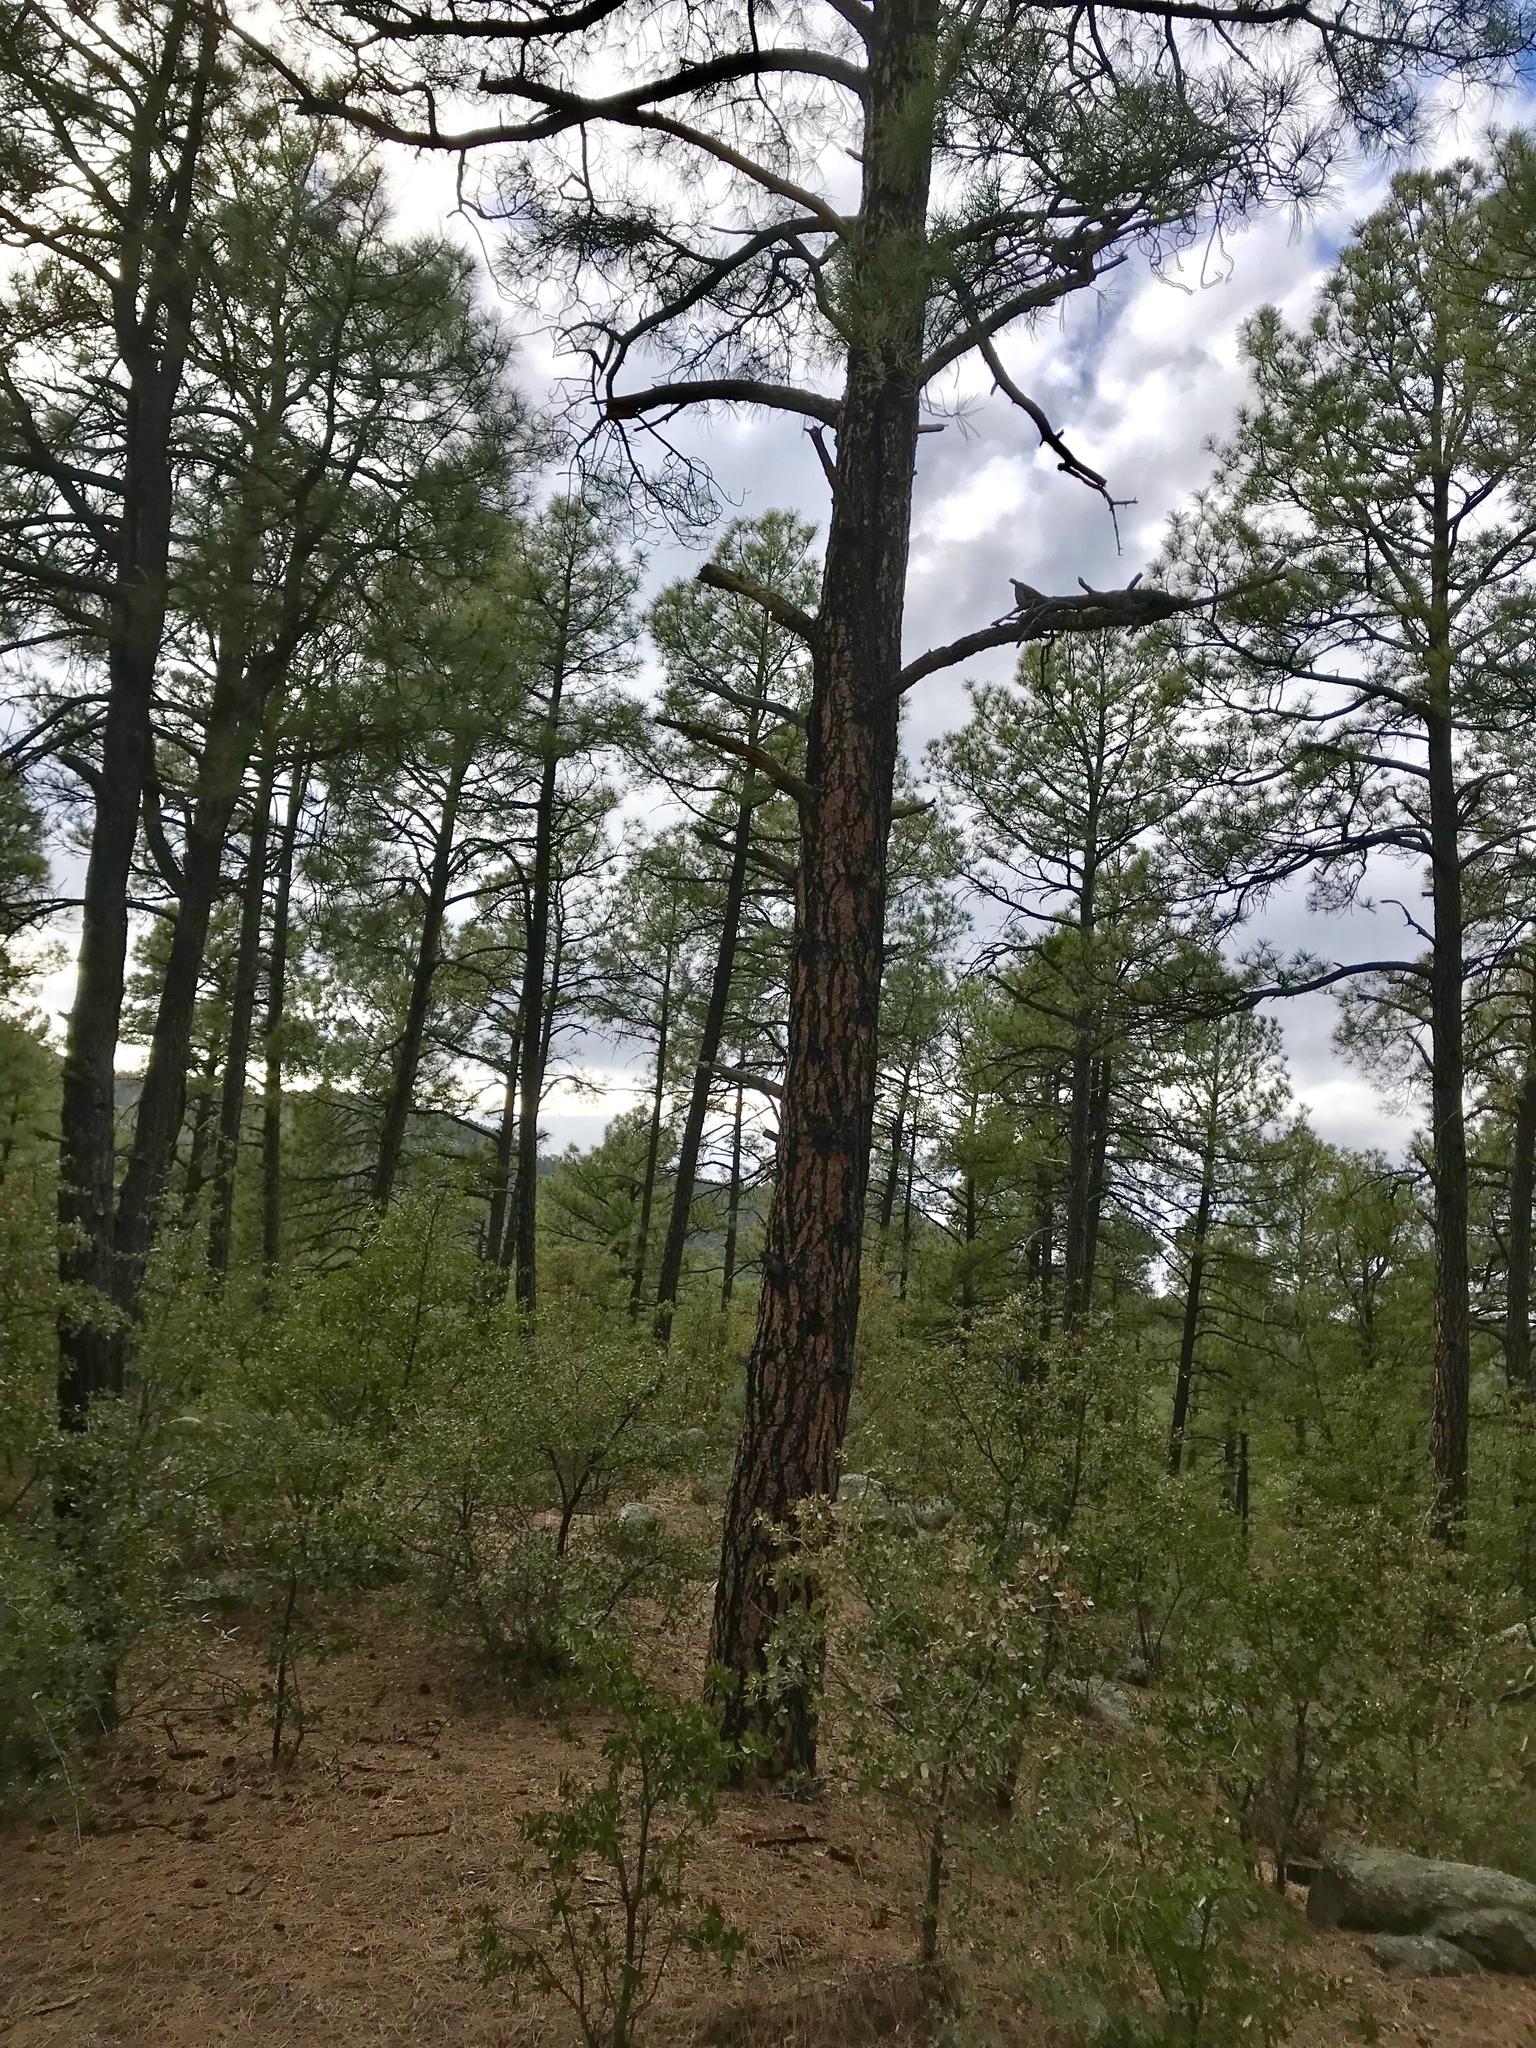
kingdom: Plantae
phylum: Tracheophyta
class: Pinopsida
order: Pinales
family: Pinaceae
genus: Pinus
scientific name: Pinus ponderosa
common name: Western yellow-pine
